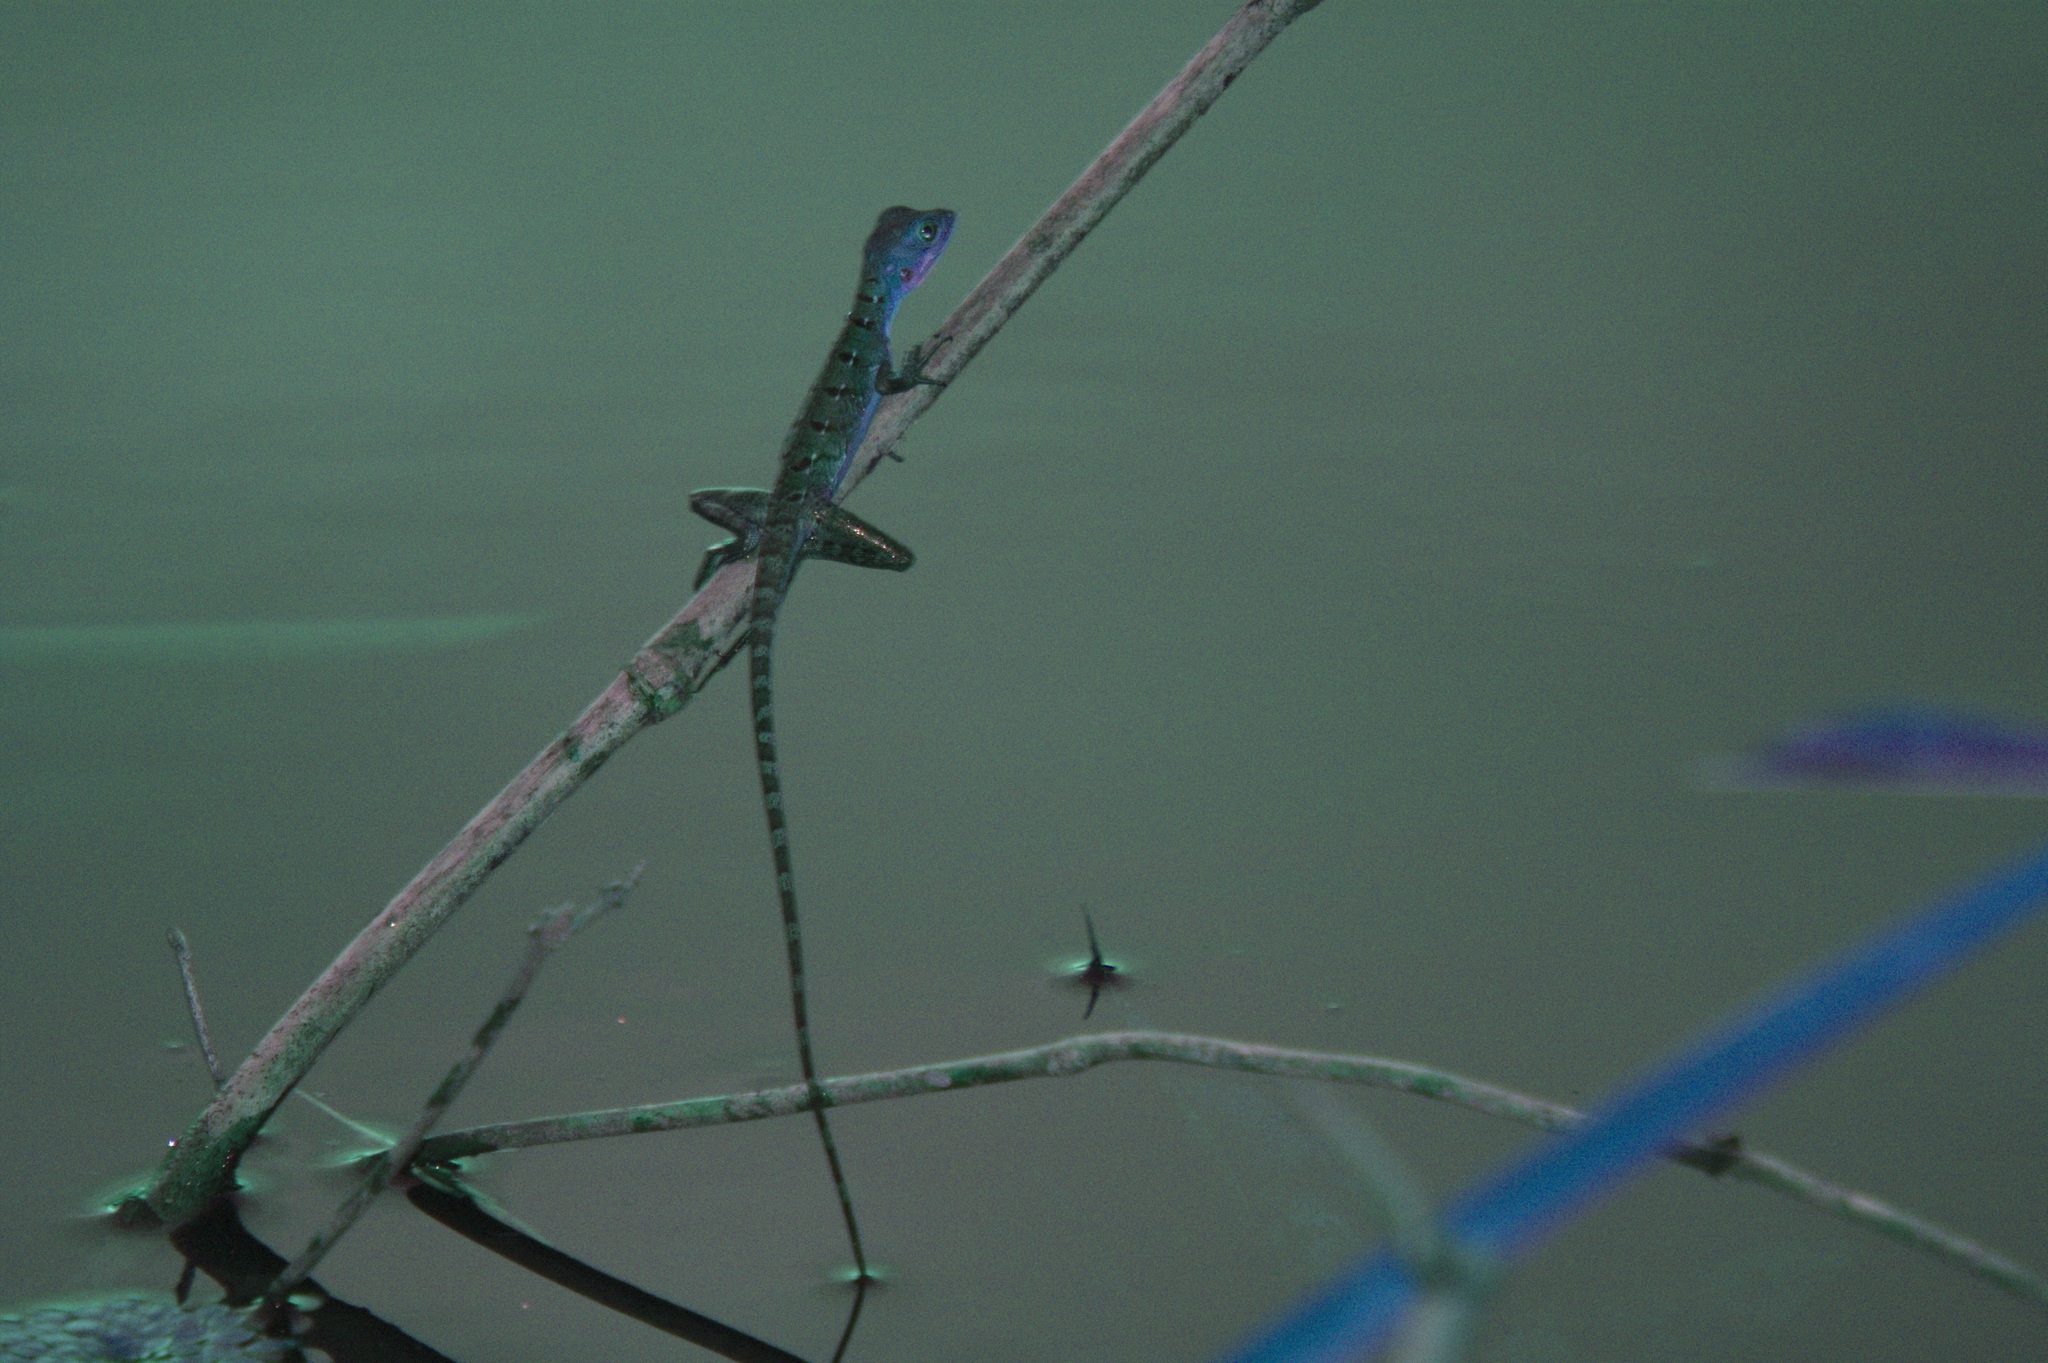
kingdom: Animalia
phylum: Chordata
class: Squamata
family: Corytophanidae
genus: Basiliscus
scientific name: Basiliscus plumifrons
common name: Green basilisk
